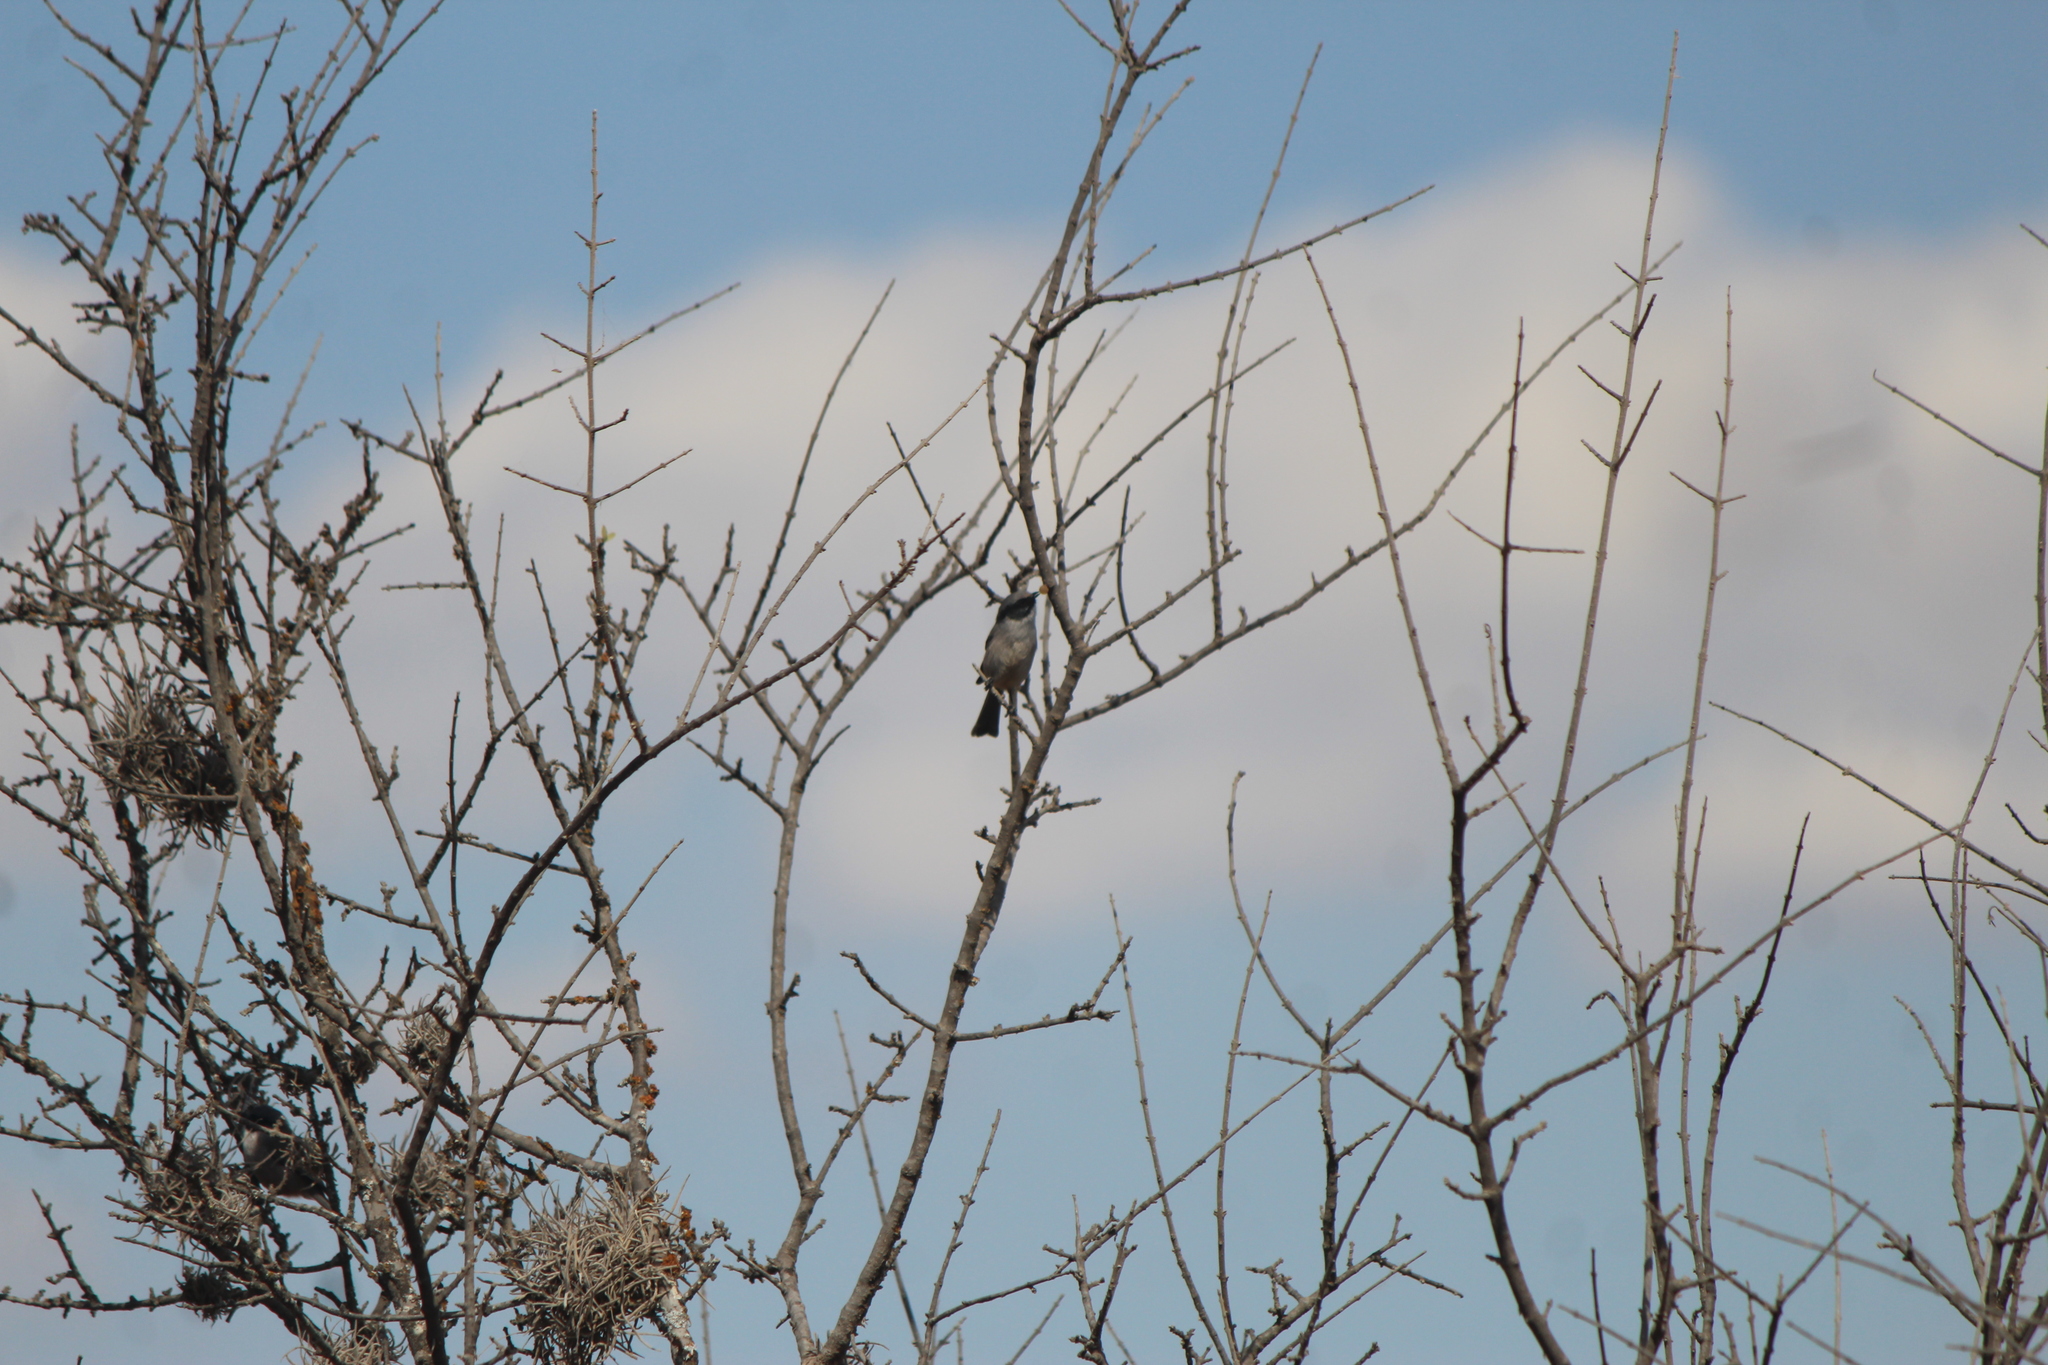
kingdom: Animalia
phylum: Chordata
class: Aves
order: Passeriformes
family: Aegithalidae
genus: Psaltriparus
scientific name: Psaltriparus minimus
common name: American bushtit
